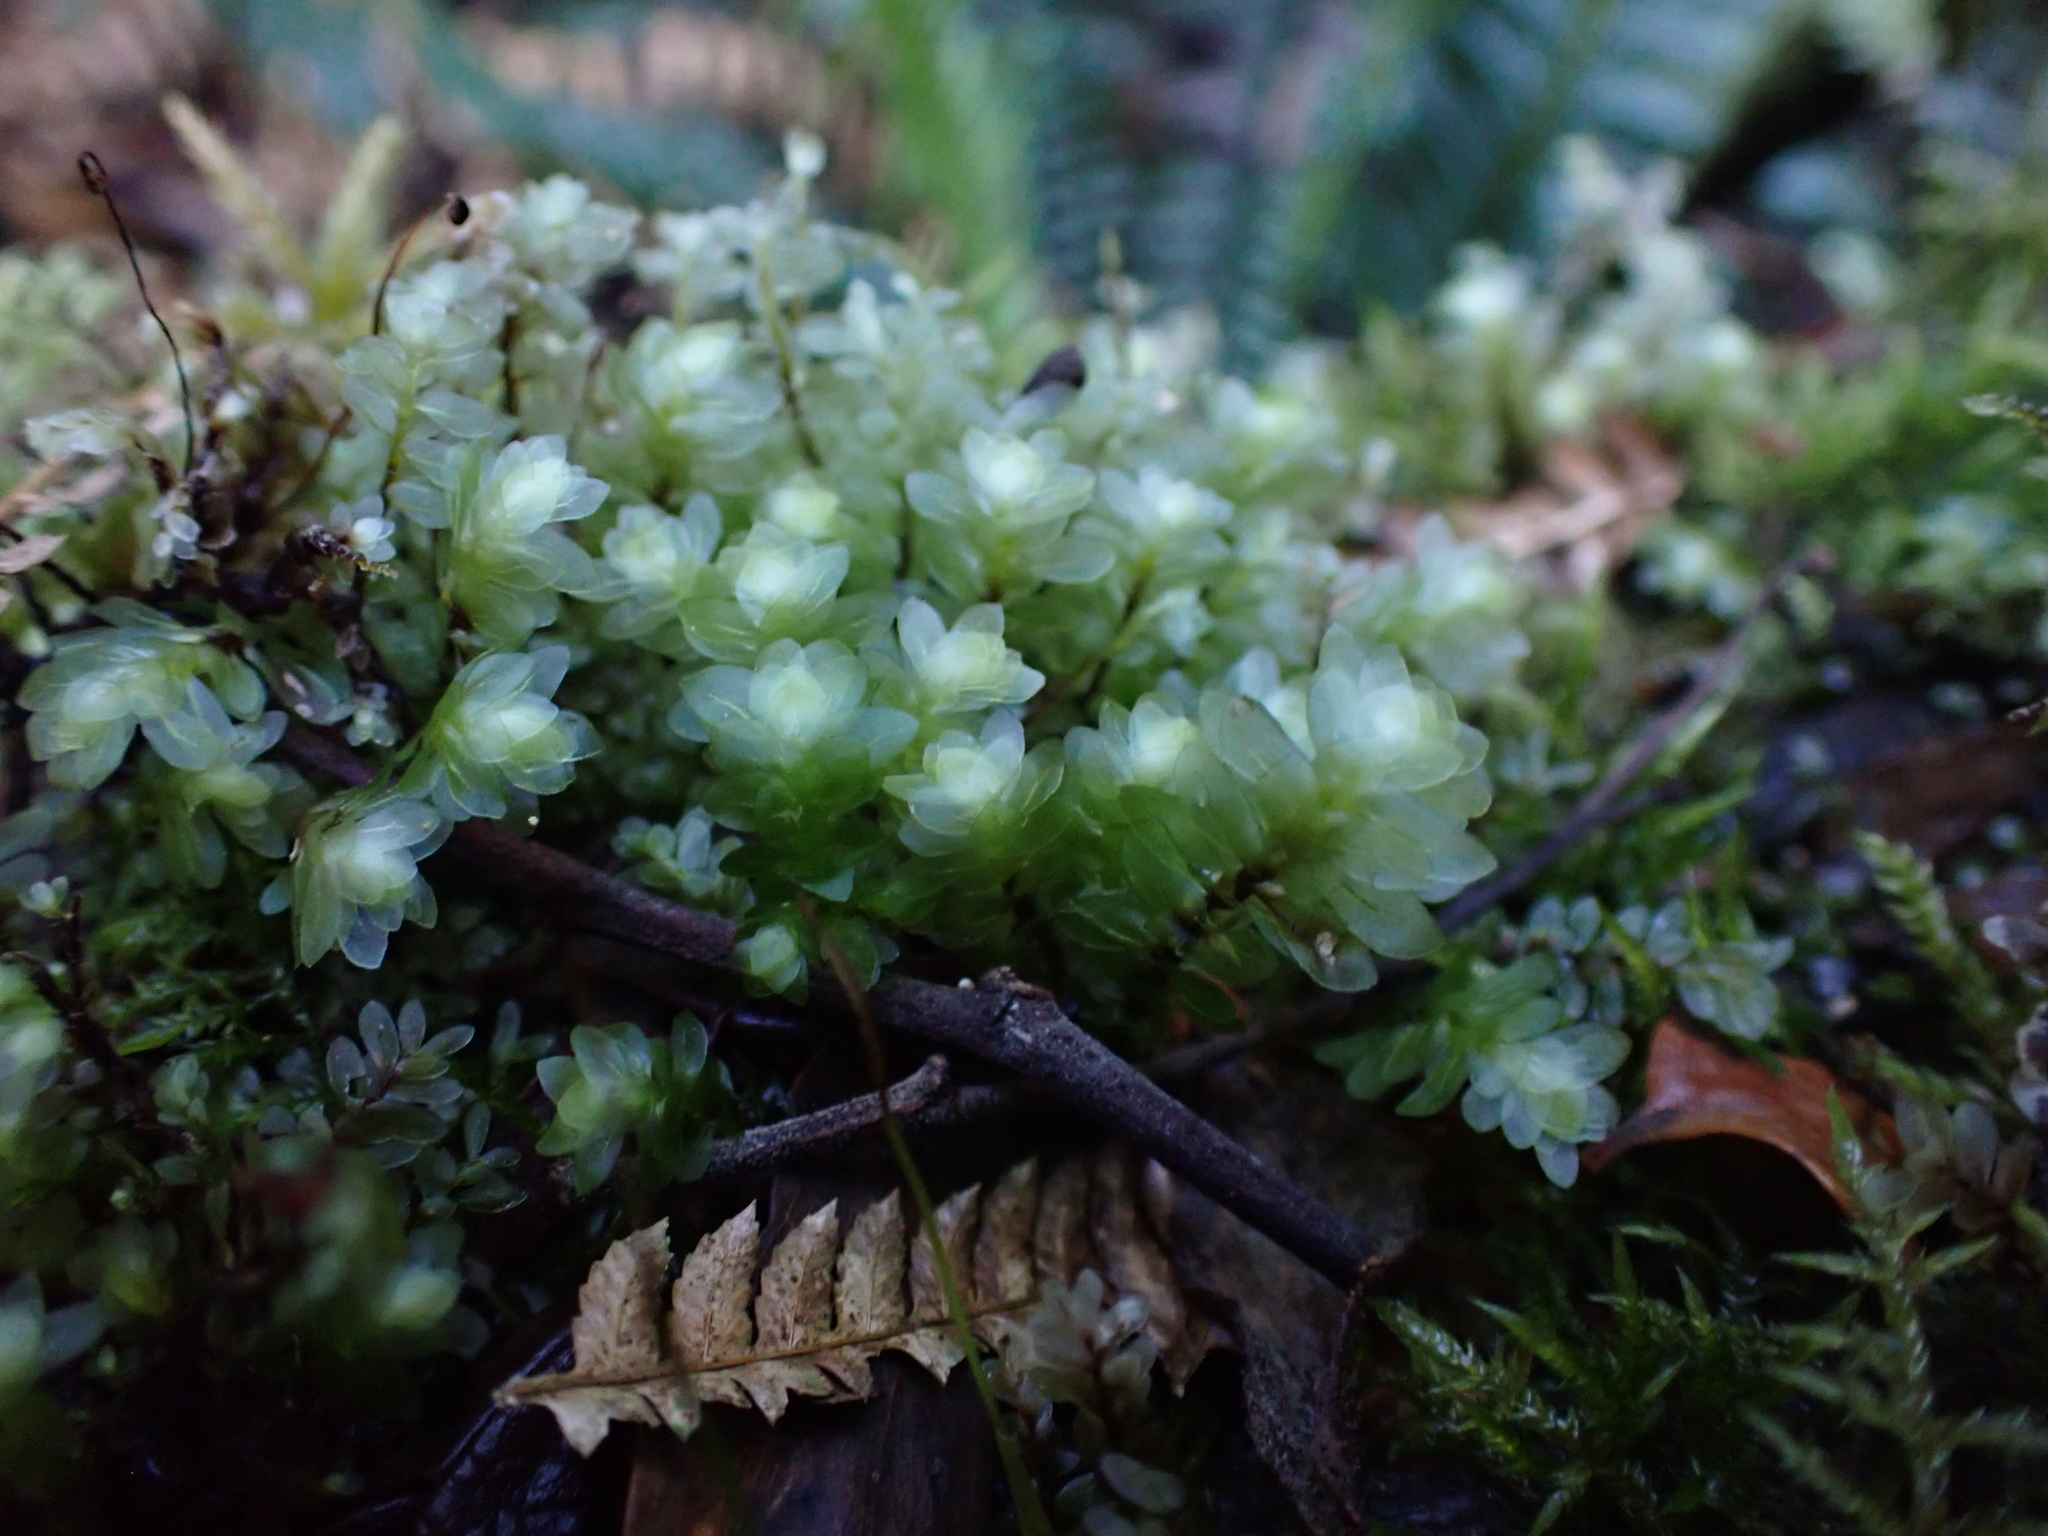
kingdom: Plantae
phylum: Bryophyta
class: Bryopsida
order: Hookeriales
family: Daltoniaceae
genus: Achrophyllum
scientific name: Achrophyllum dentatum
